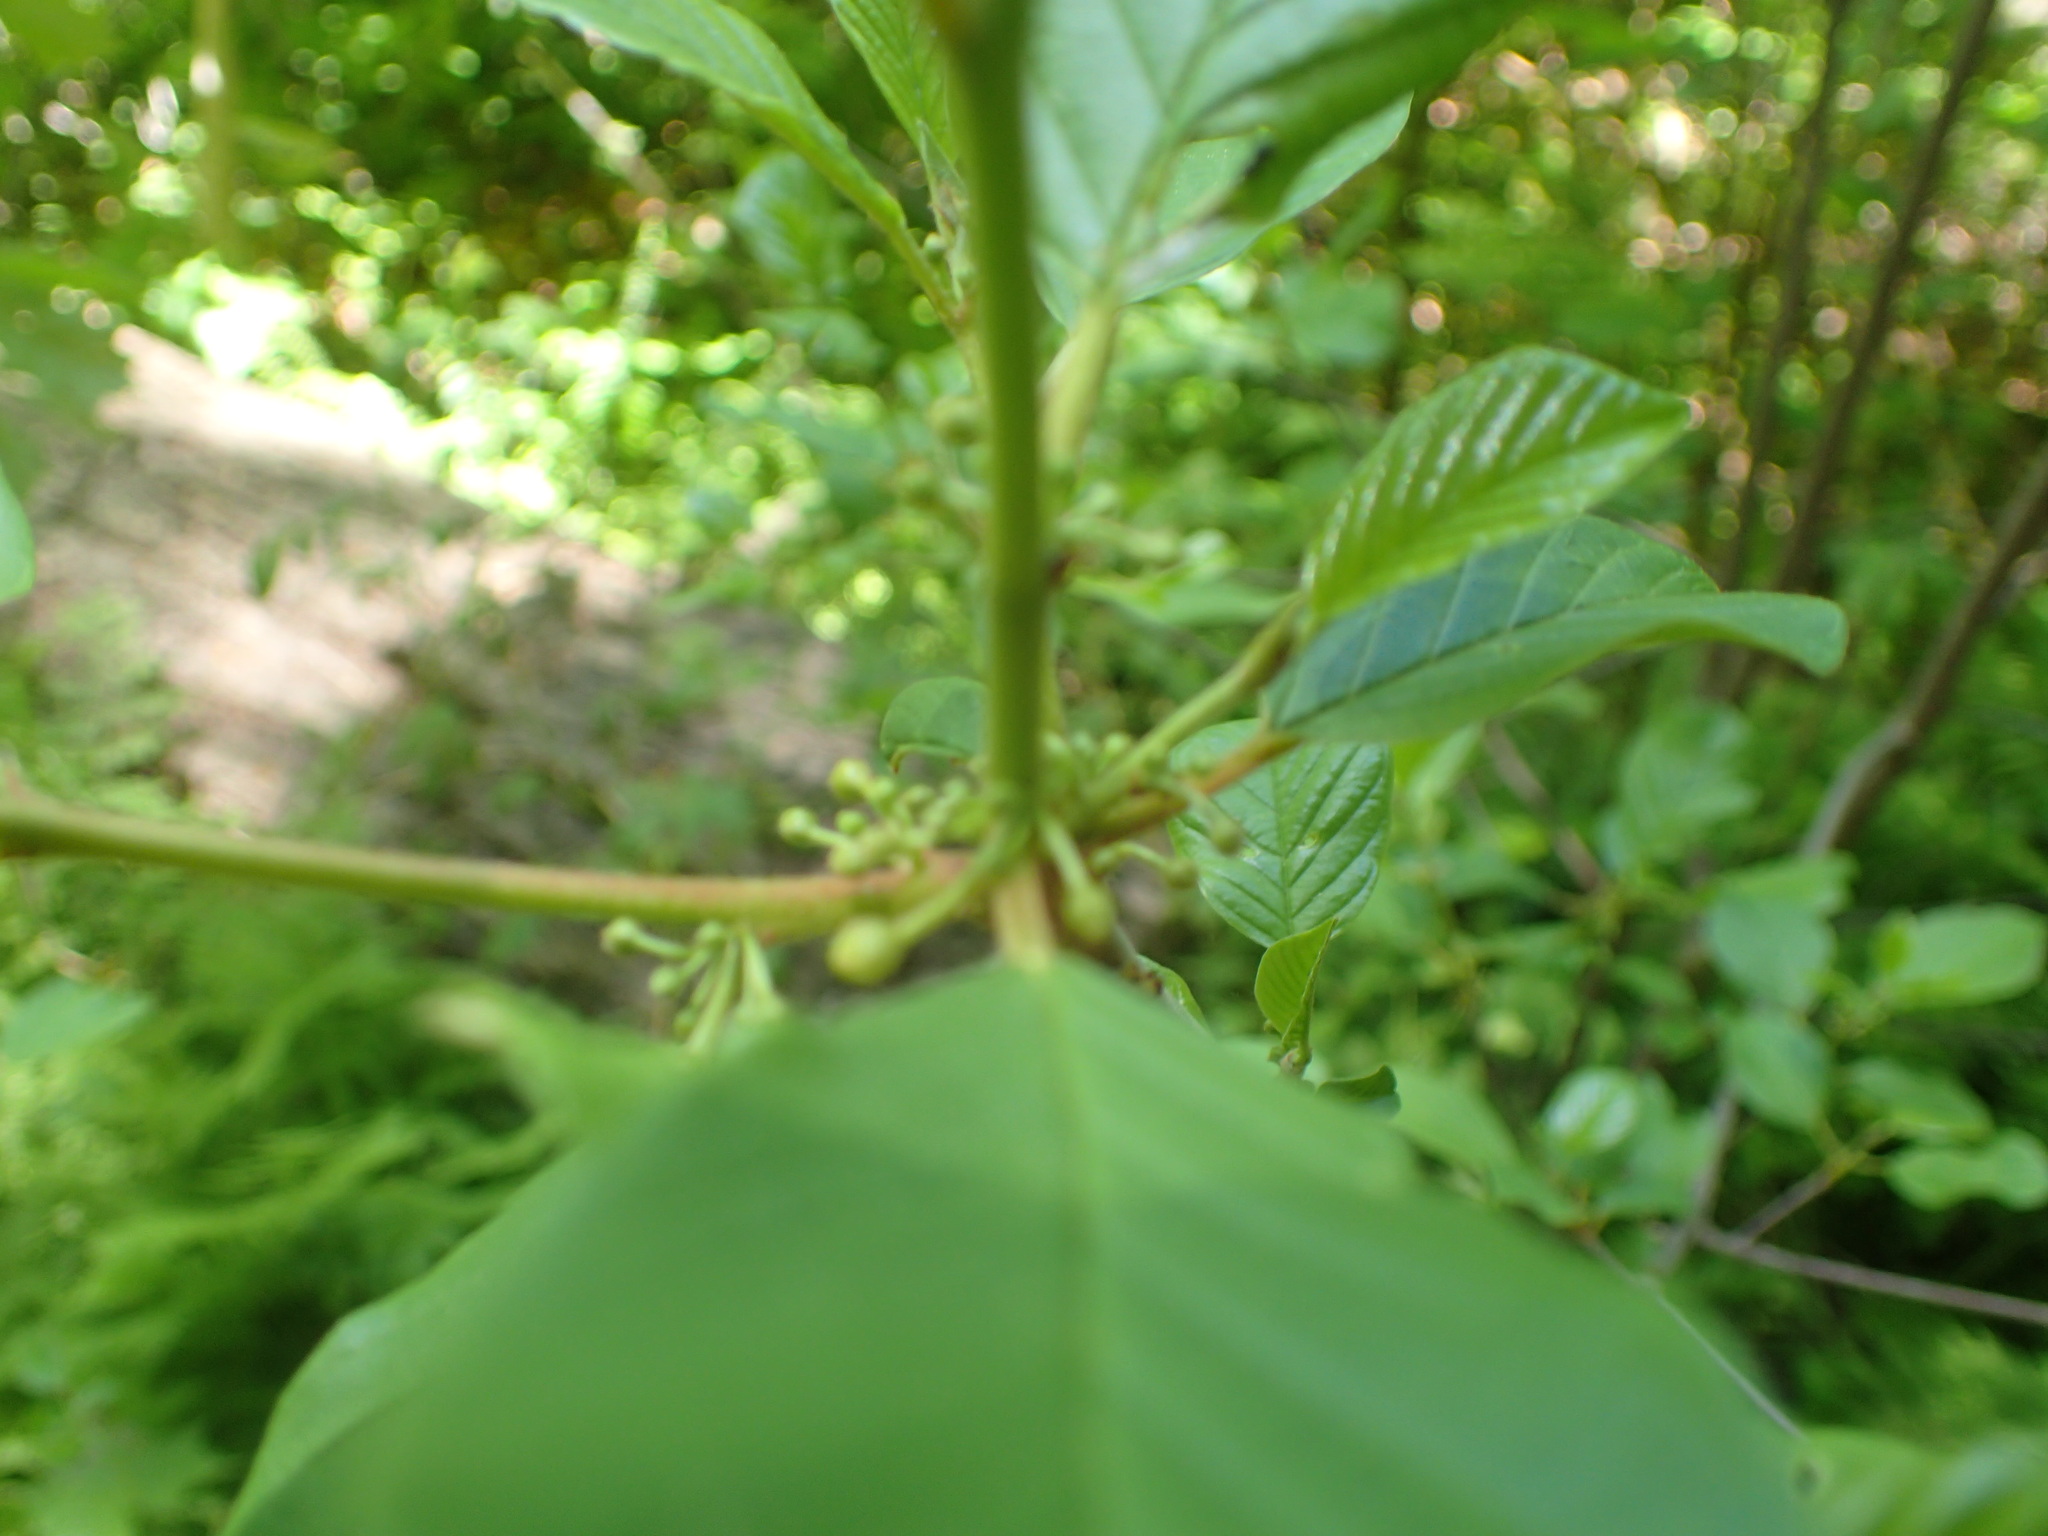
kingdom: Plantae
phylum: Tracheophyta
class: Magnoliopsida
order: Rosales
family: Rhamnaceae
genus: Frangula
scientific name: Frangula alnus
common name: Alder buckthorn
